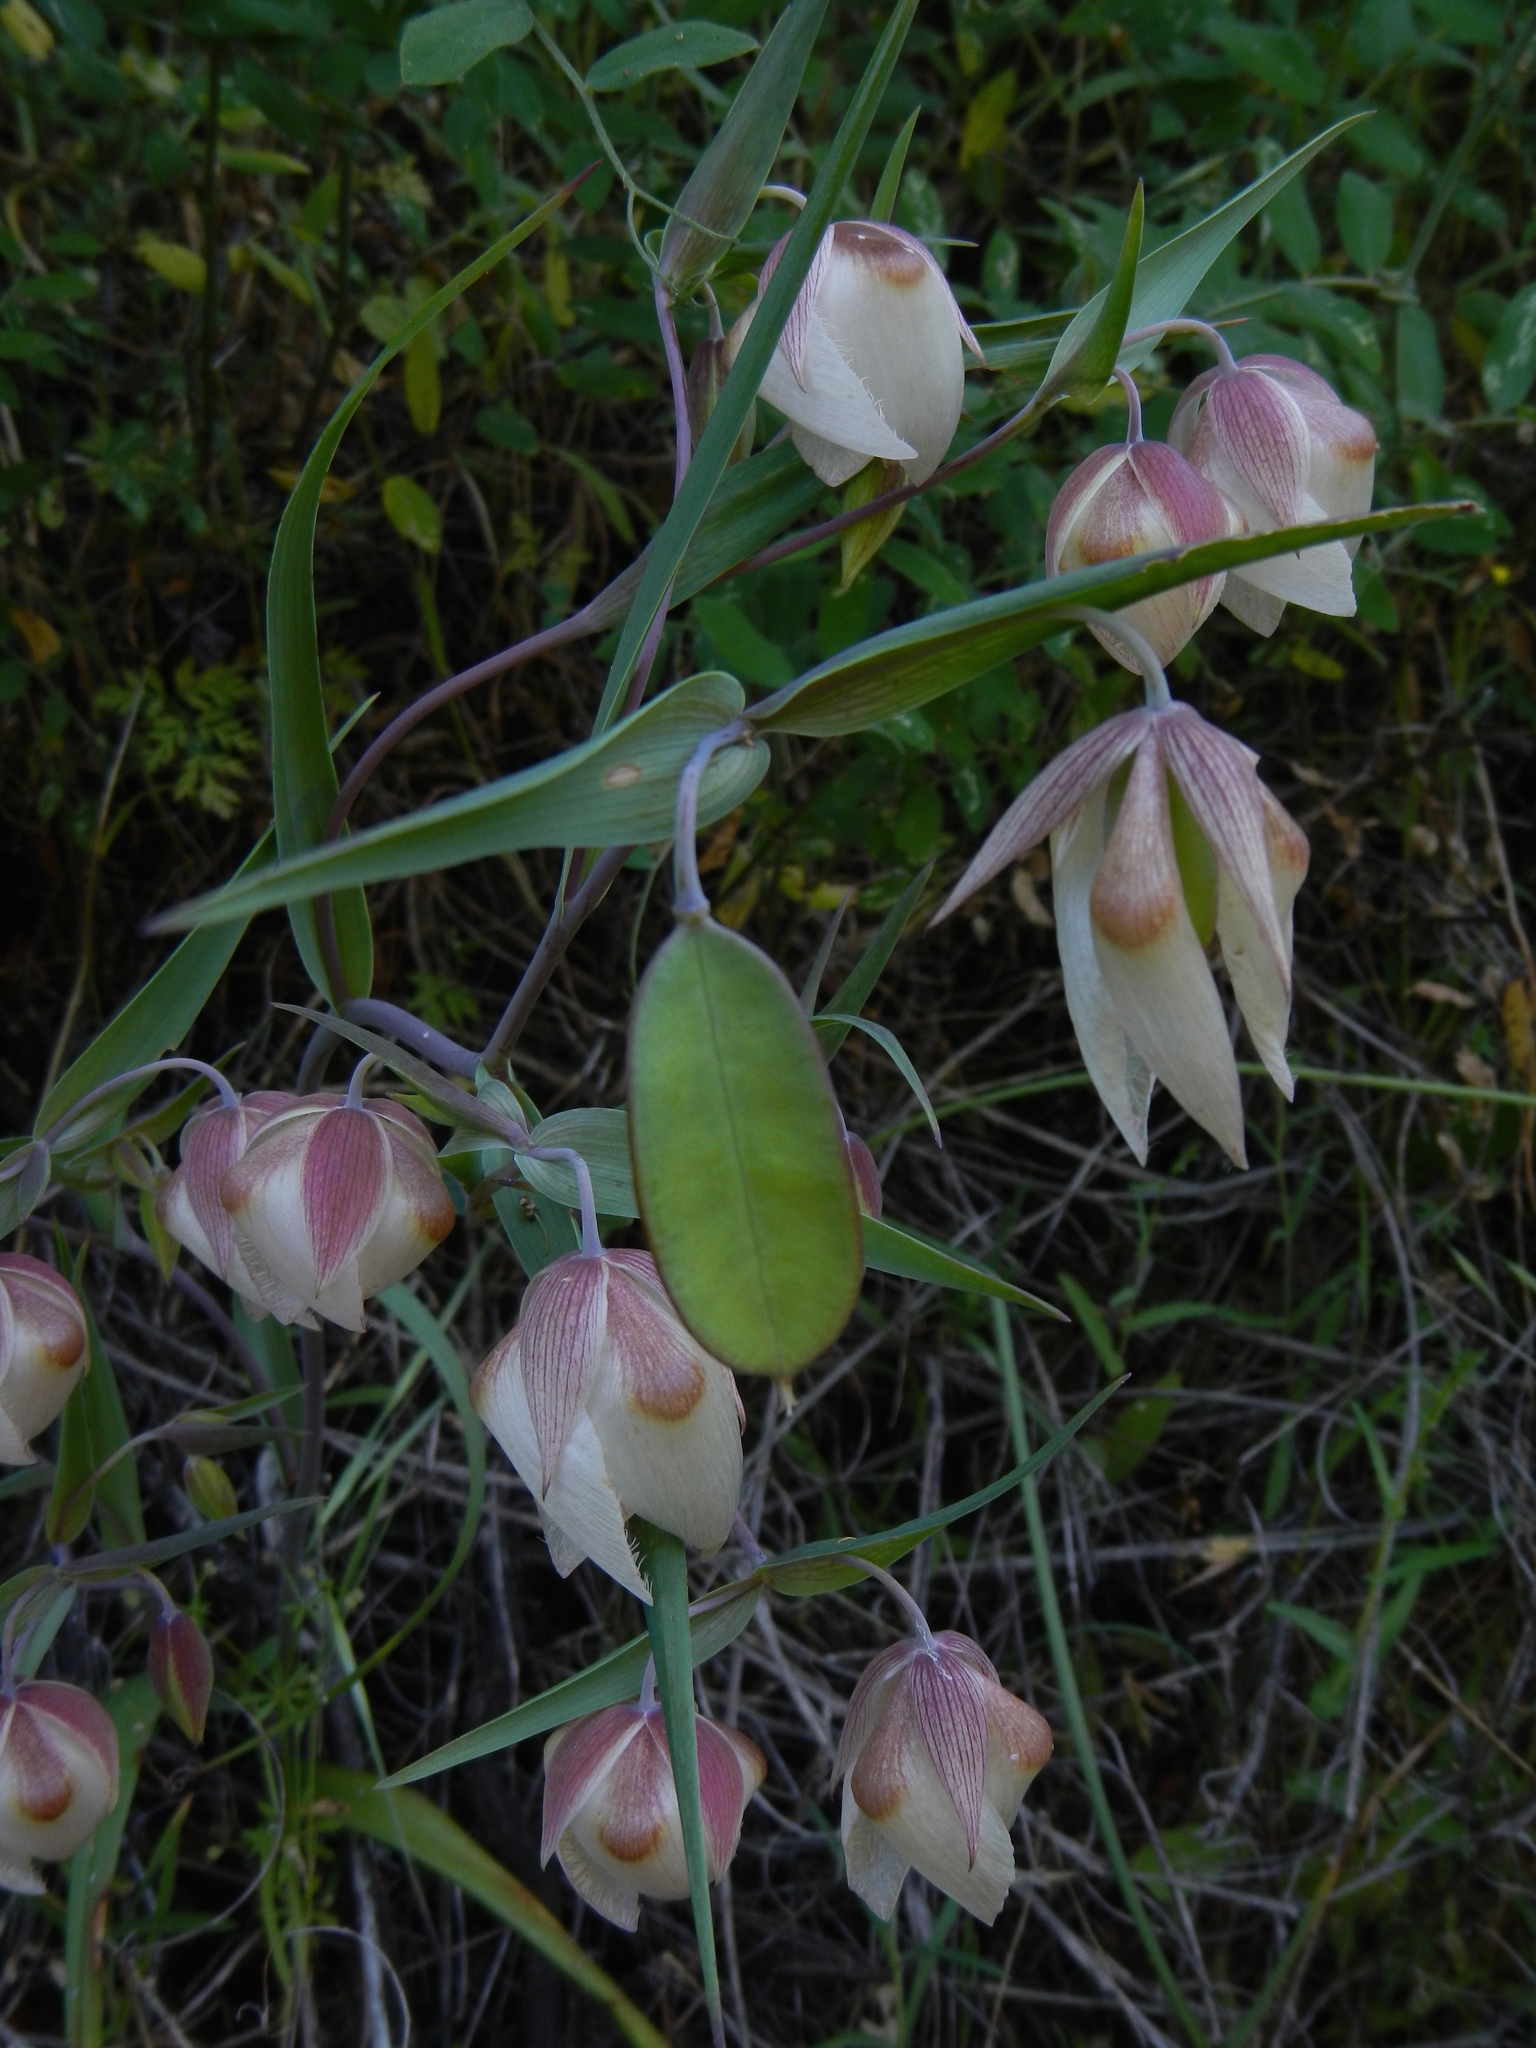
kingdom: Plantae
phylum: Tracheophyta
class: Liliopsida
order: Liliales
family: Liliaceae
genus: Calochortus
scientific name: Calochortus albus
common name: Fairy-lantern
